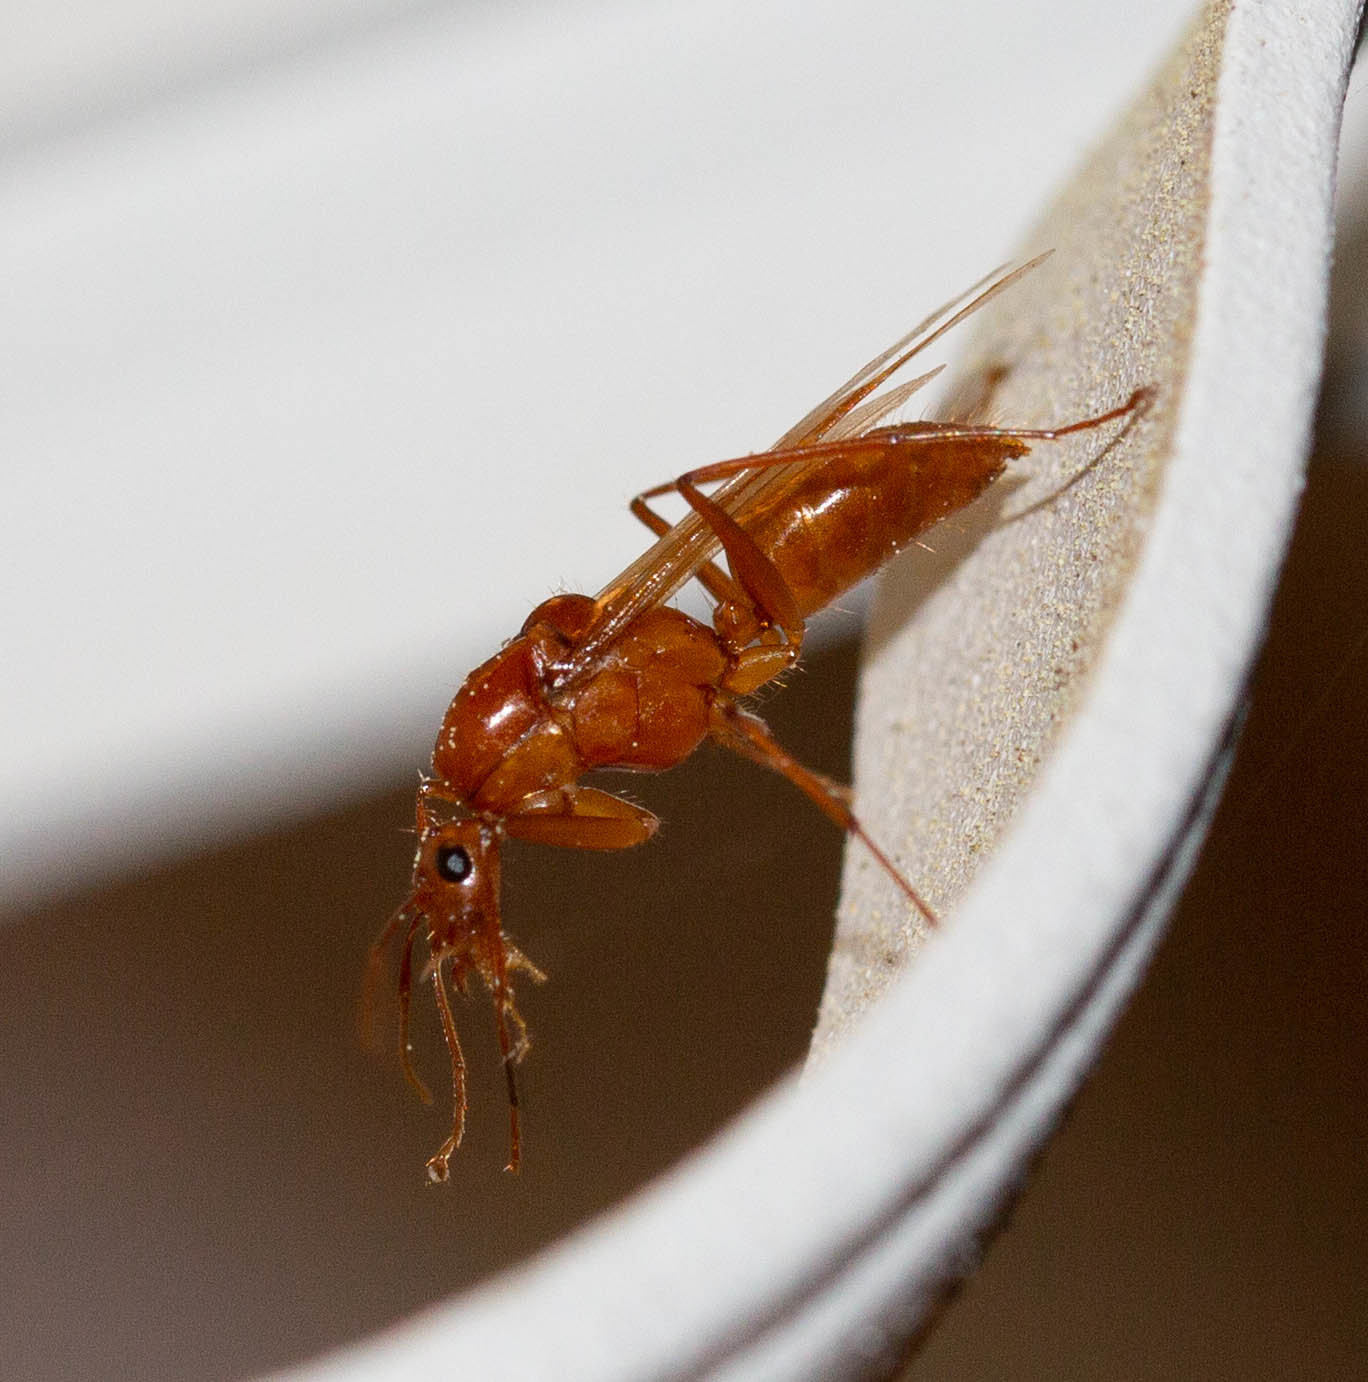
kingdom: Animalia
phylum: Arthropoda
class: Insecta
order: Hymenoptera
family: Formicidae
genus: Camponotus
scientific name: Camponotus castaneus
